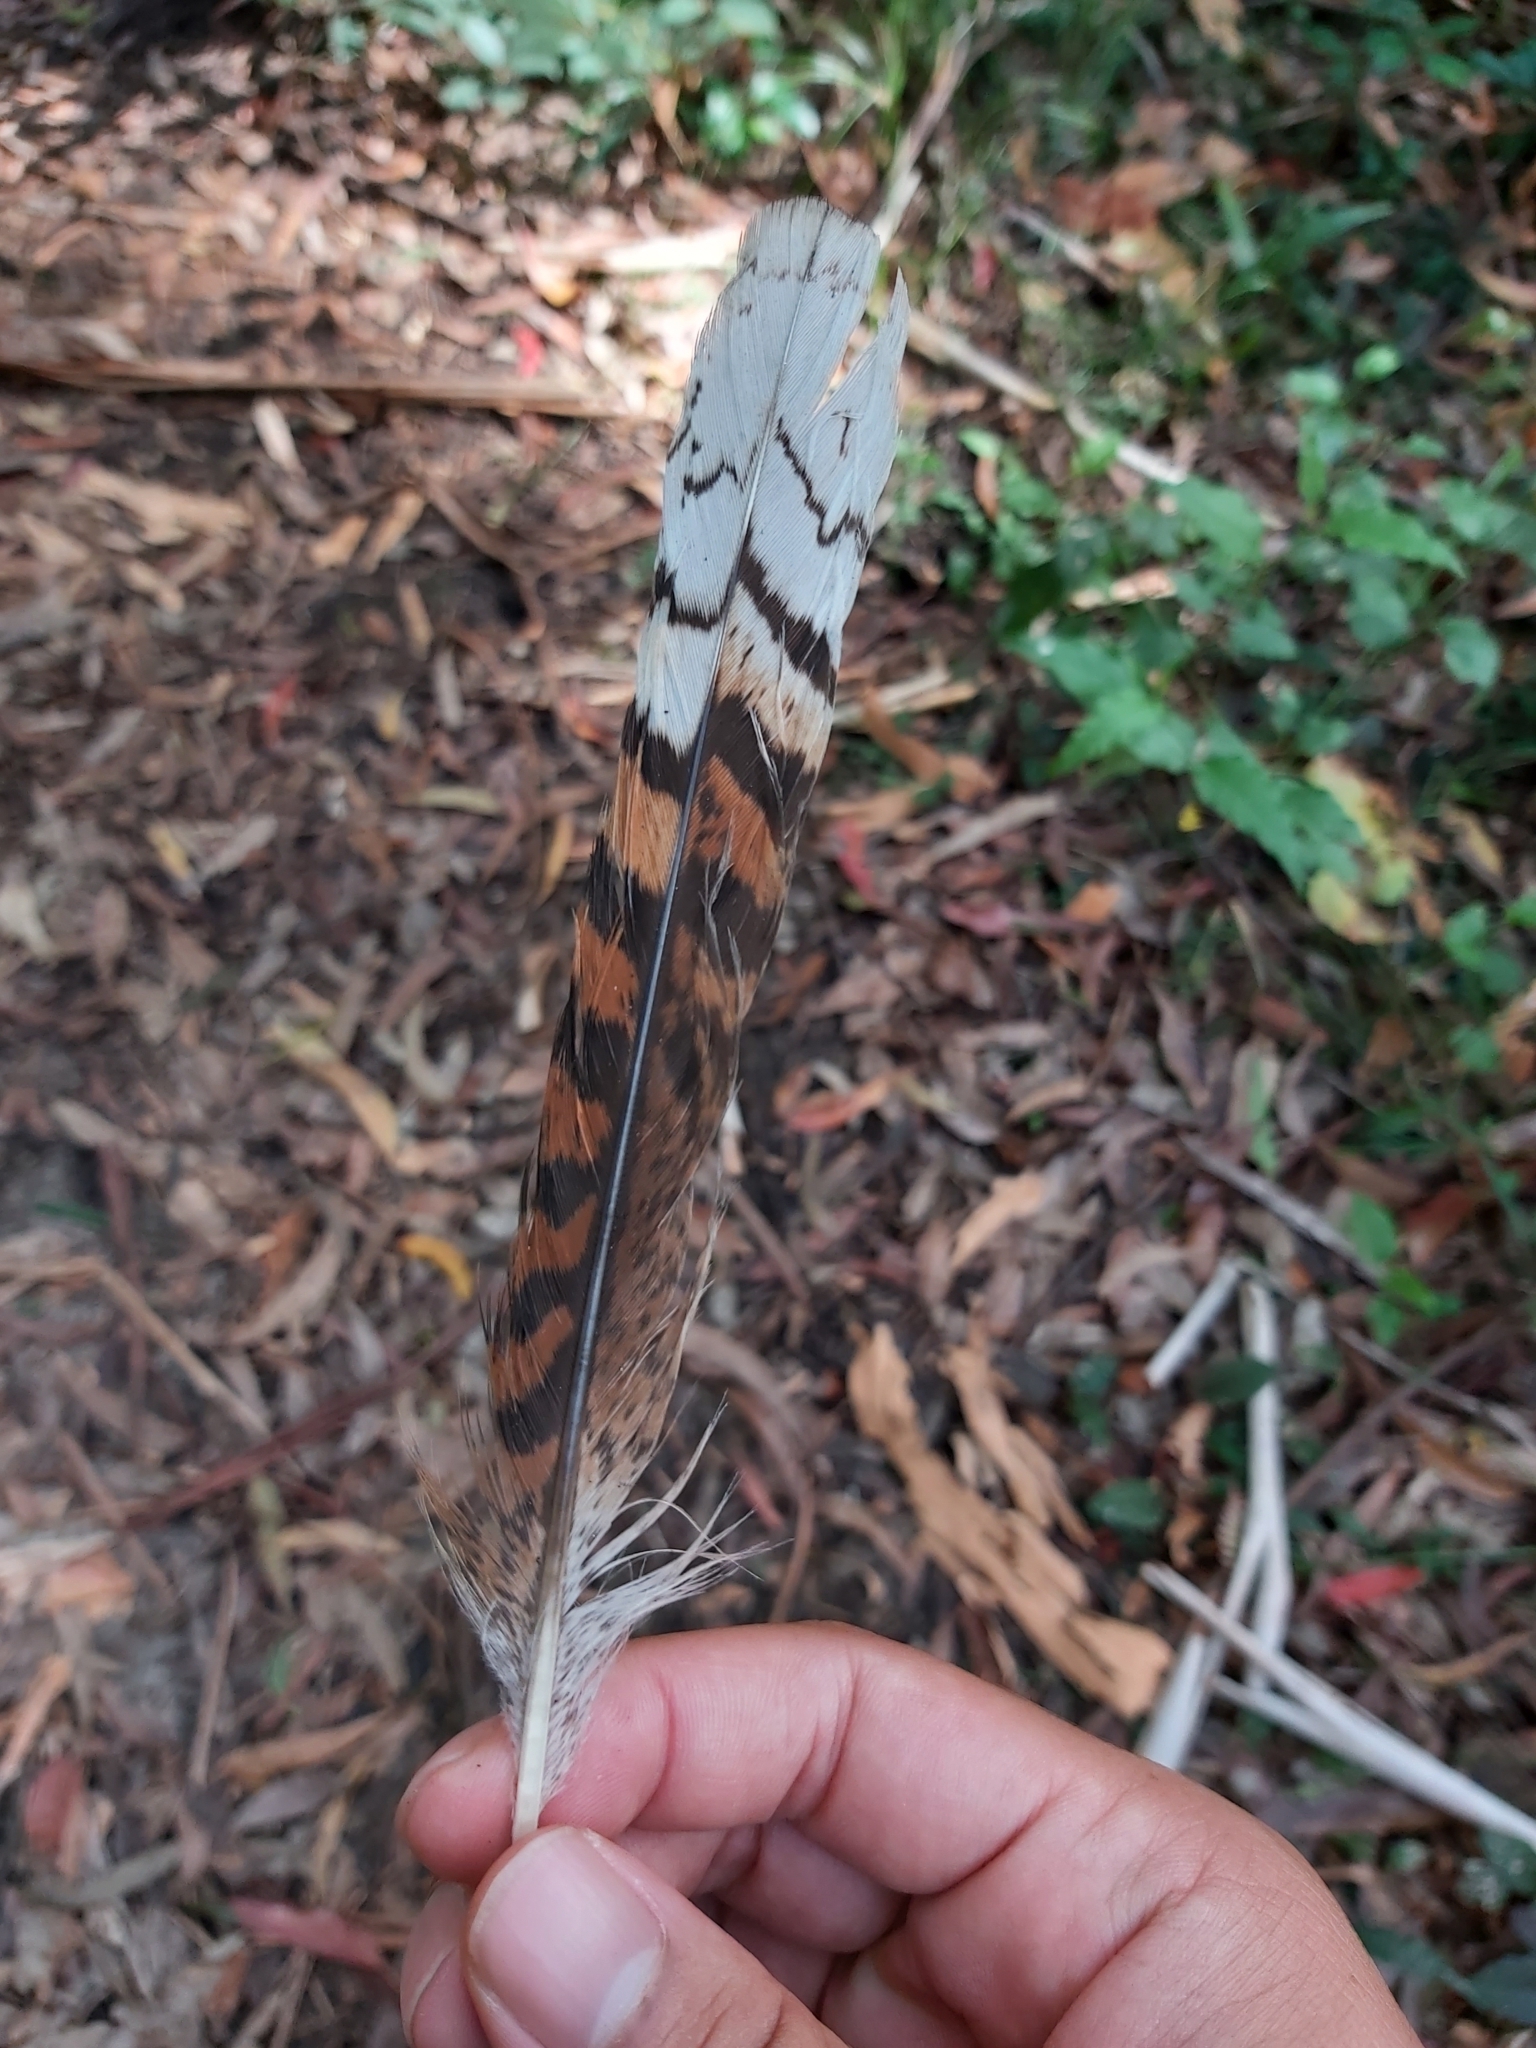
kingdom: Animalia
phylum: Chordata
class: Aves
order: Coraciiformes
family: Alcedinidae
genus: Dacelo
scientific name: Dacelo novaeguineae
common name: Laughing kookaburra
